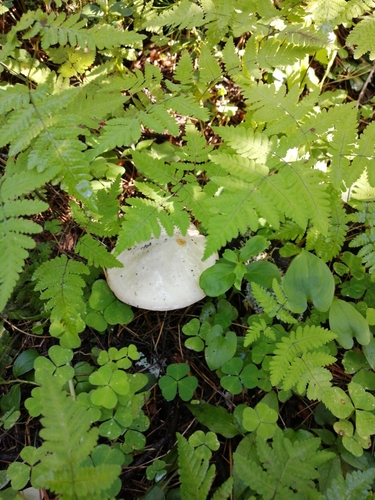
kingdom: Fungi
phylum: Basidiomycota
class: Agaricomycetes
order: Boletales
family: Suillaceae
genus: Suillus
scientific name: Suillus placidus
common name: Slippery white bolete
